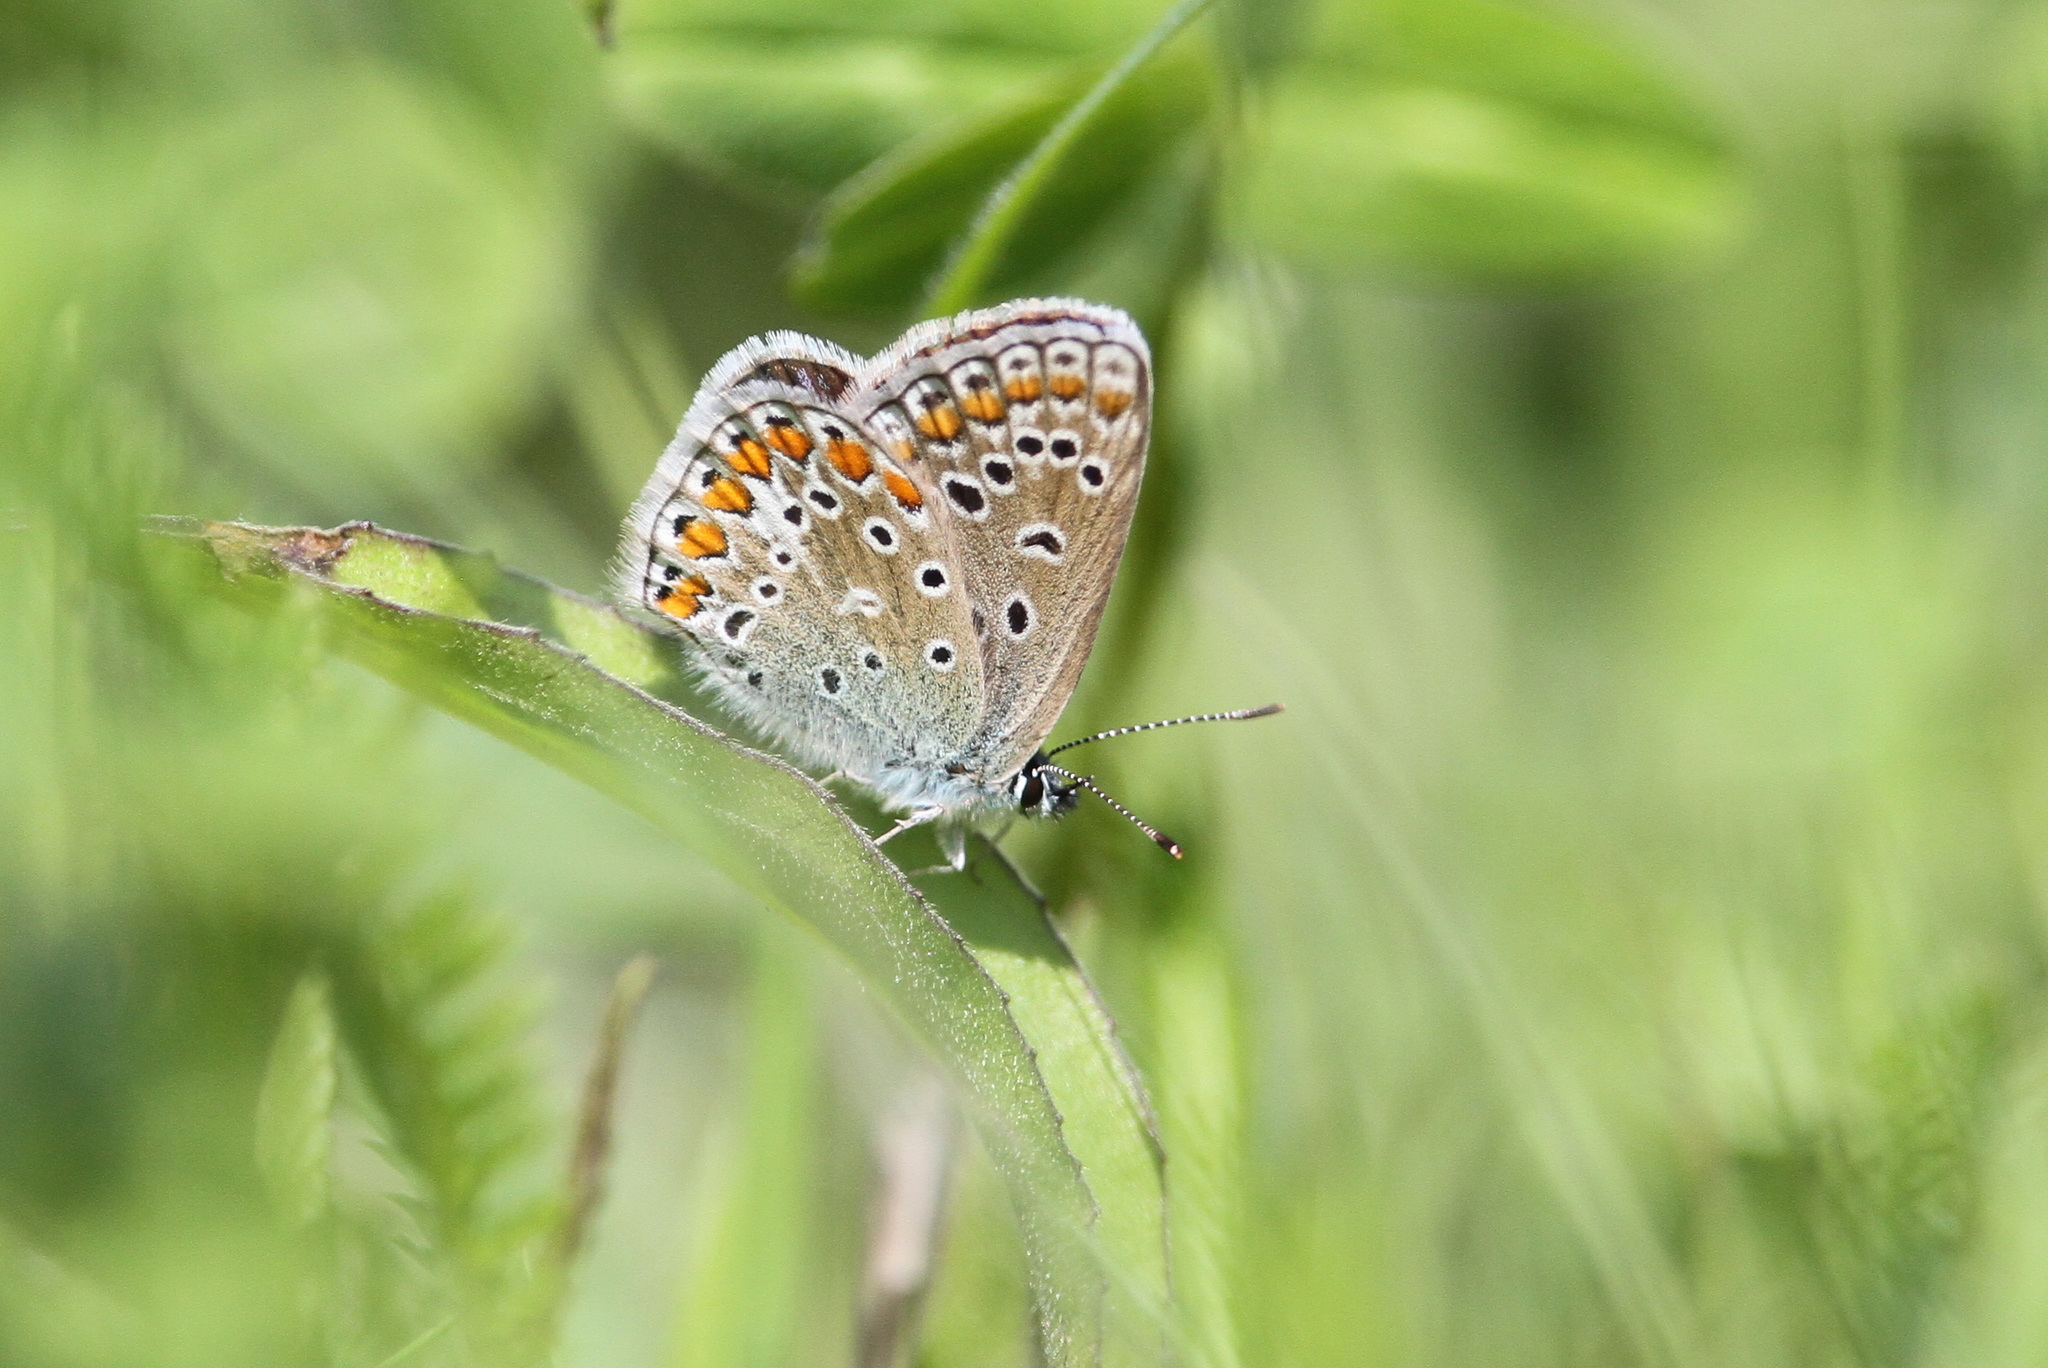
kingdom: Animalia
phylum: Arthropoda
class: Insecta
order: Lepidoptera
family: Lycaenidae
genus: Polyommatus
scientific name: Polyommatus icarus
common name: Common blue
